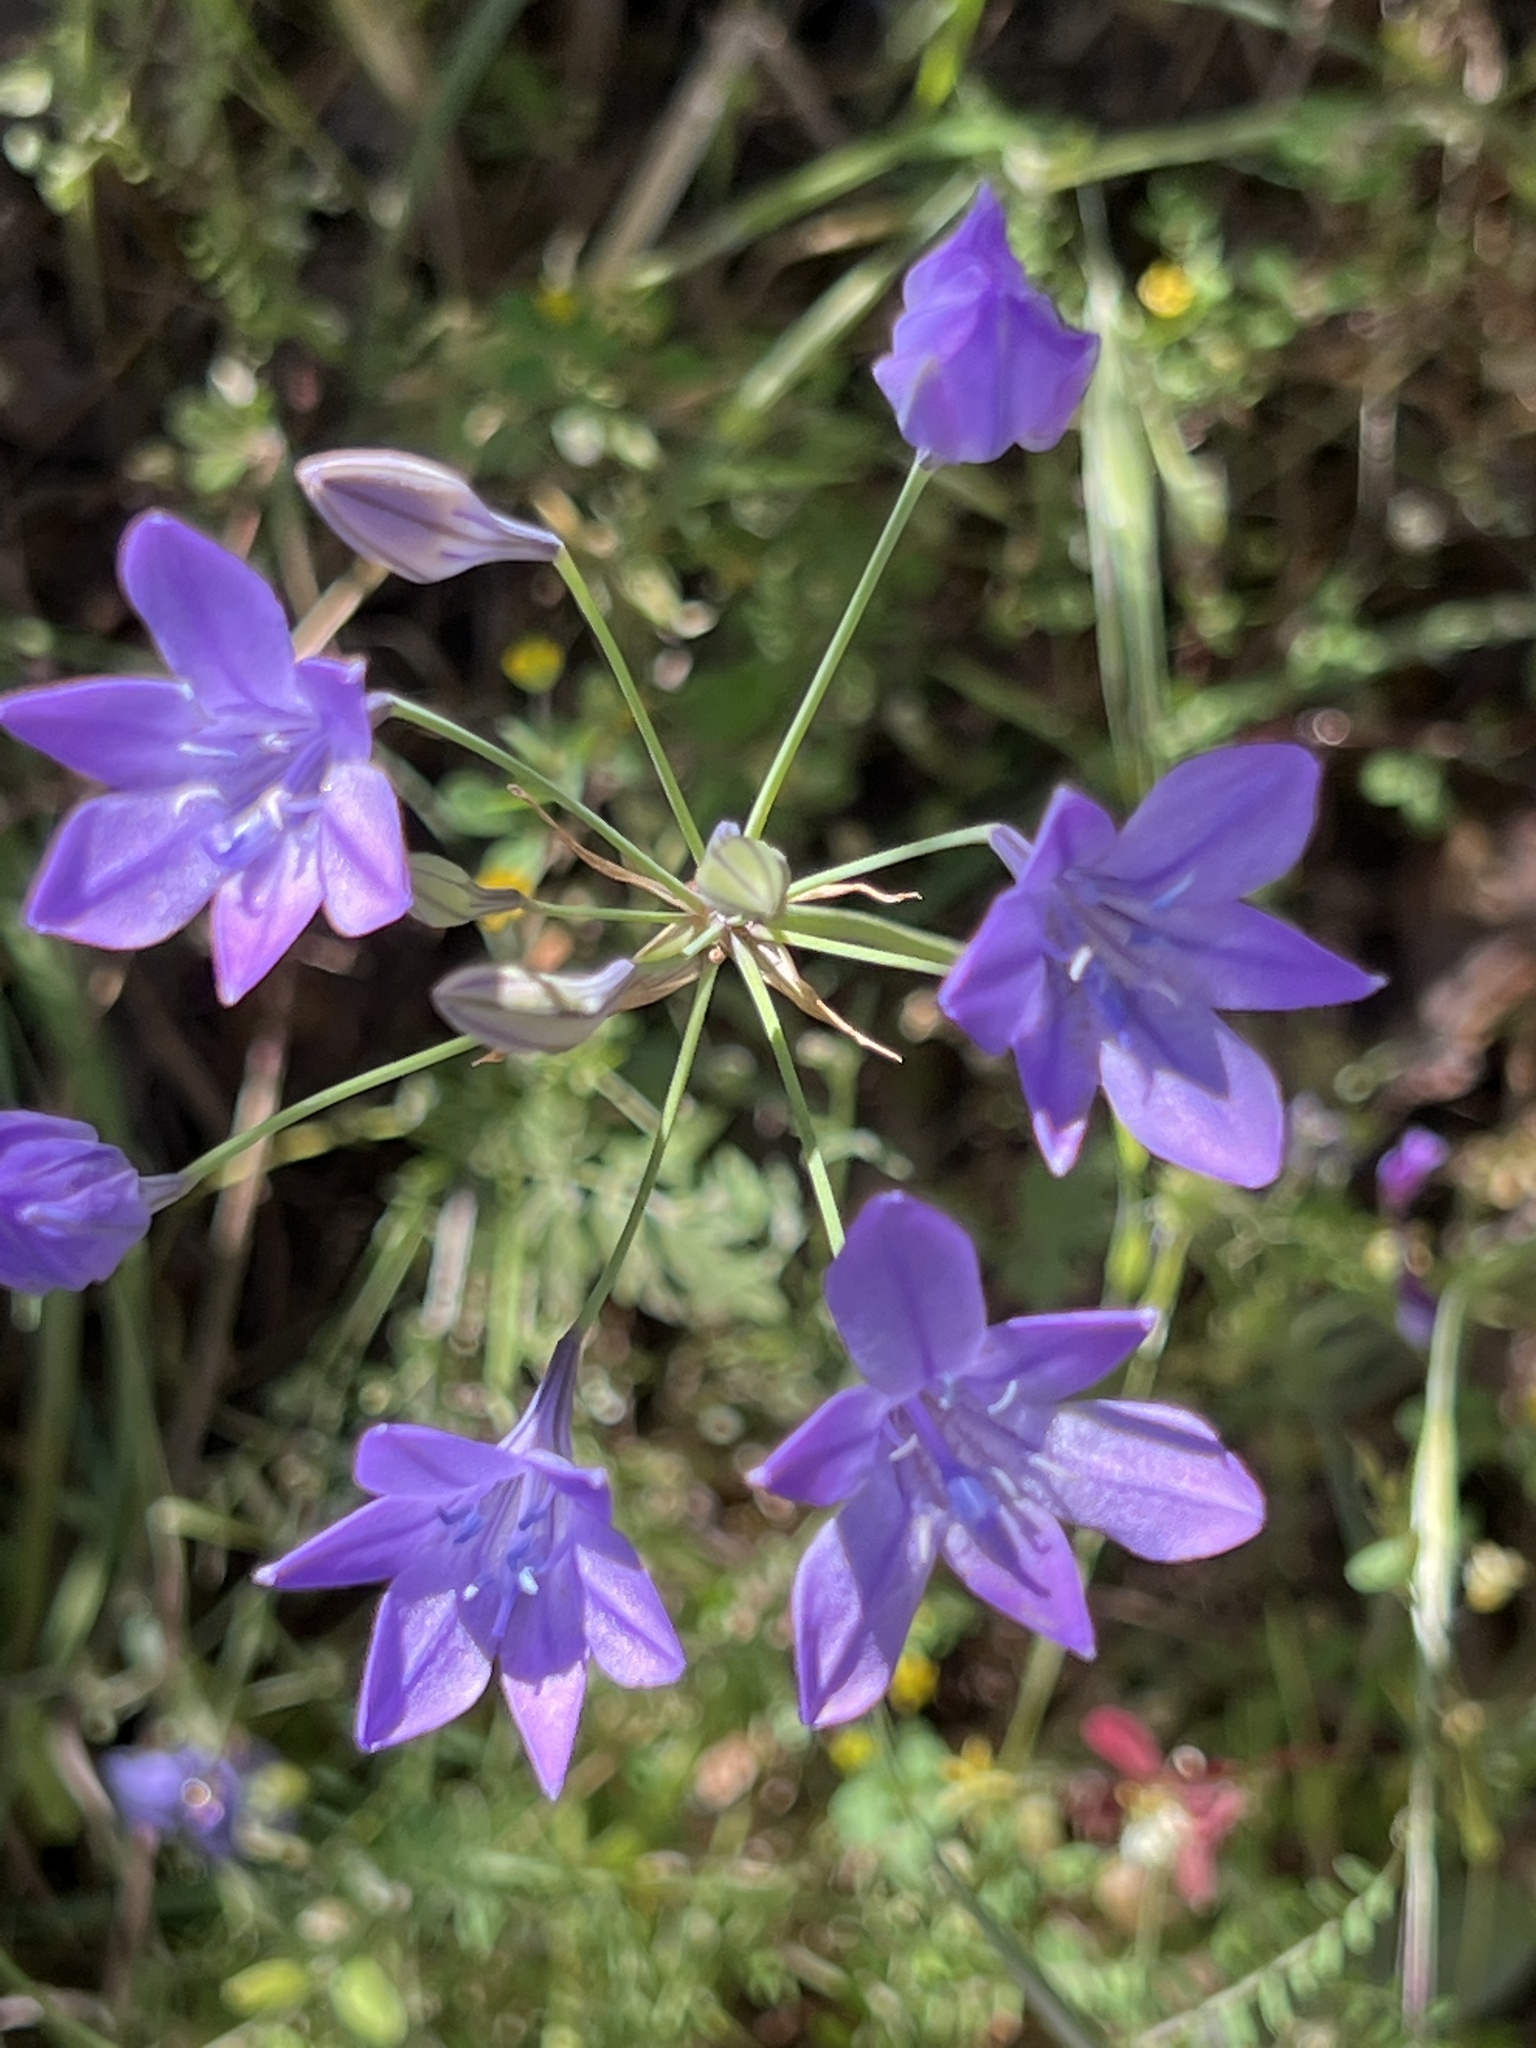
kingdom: Plantae
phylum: Tracheophyta
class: Liliopsida
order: Asparagales
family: Asparagaceae
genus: Triteleia
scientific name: Triteleia laxa
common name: Triplet-lily
